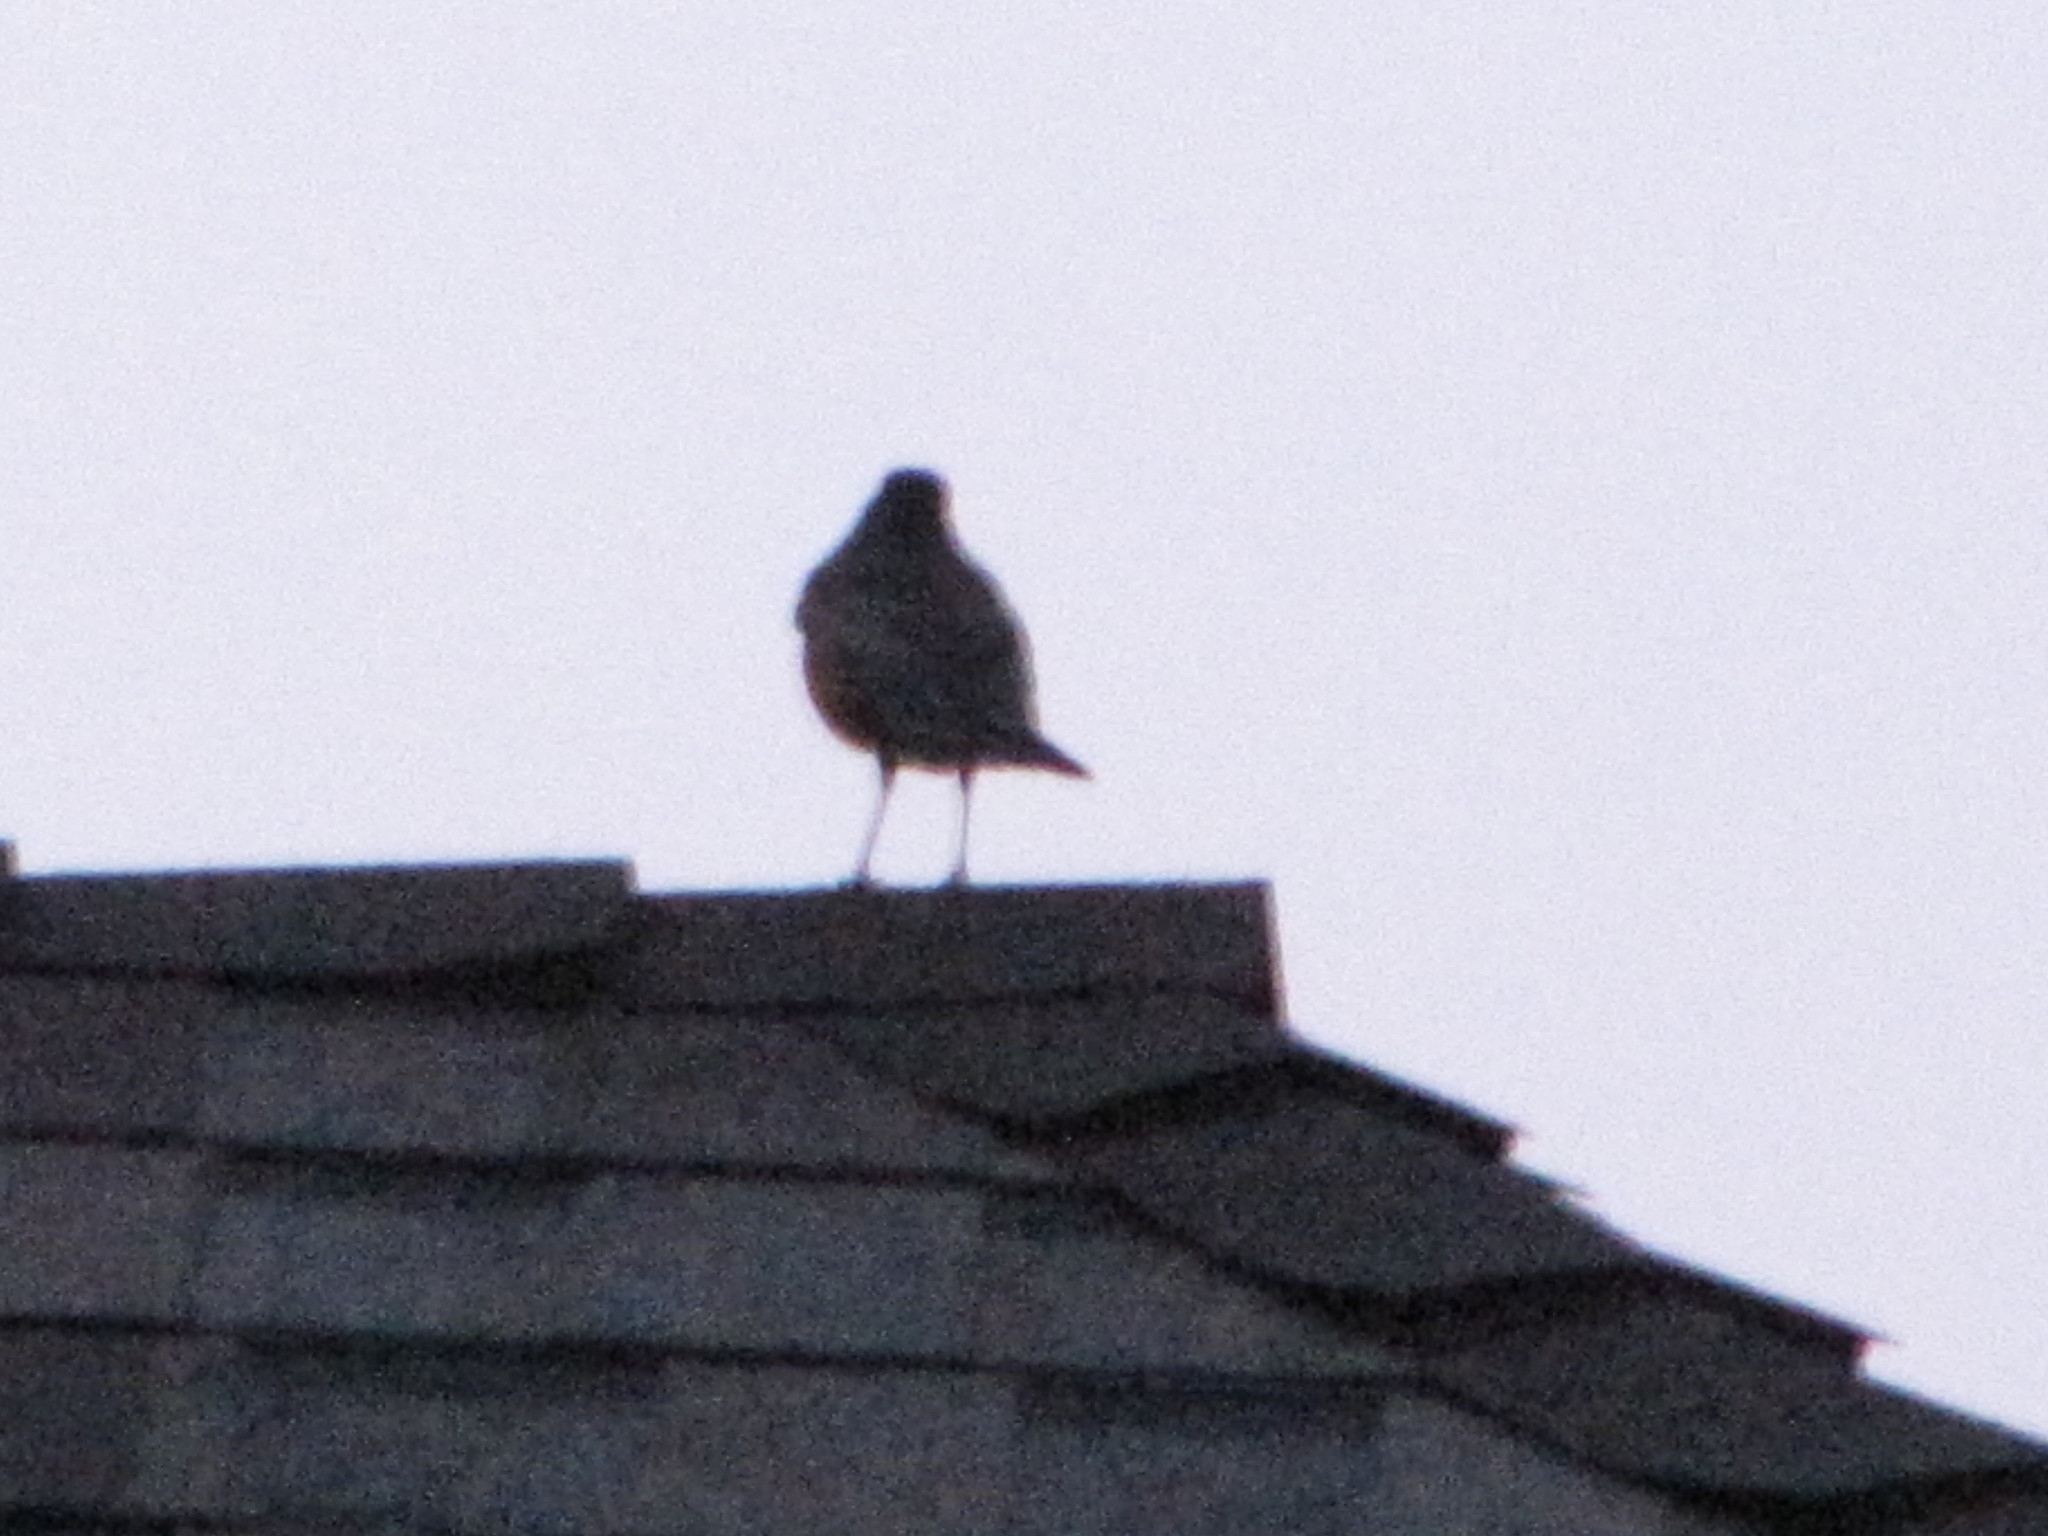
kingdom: Animalia
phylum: Chordata
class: Aves
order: Passeriformes
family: Turdidae
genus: Turdus
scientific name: Turdus migratorius
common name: American robin
